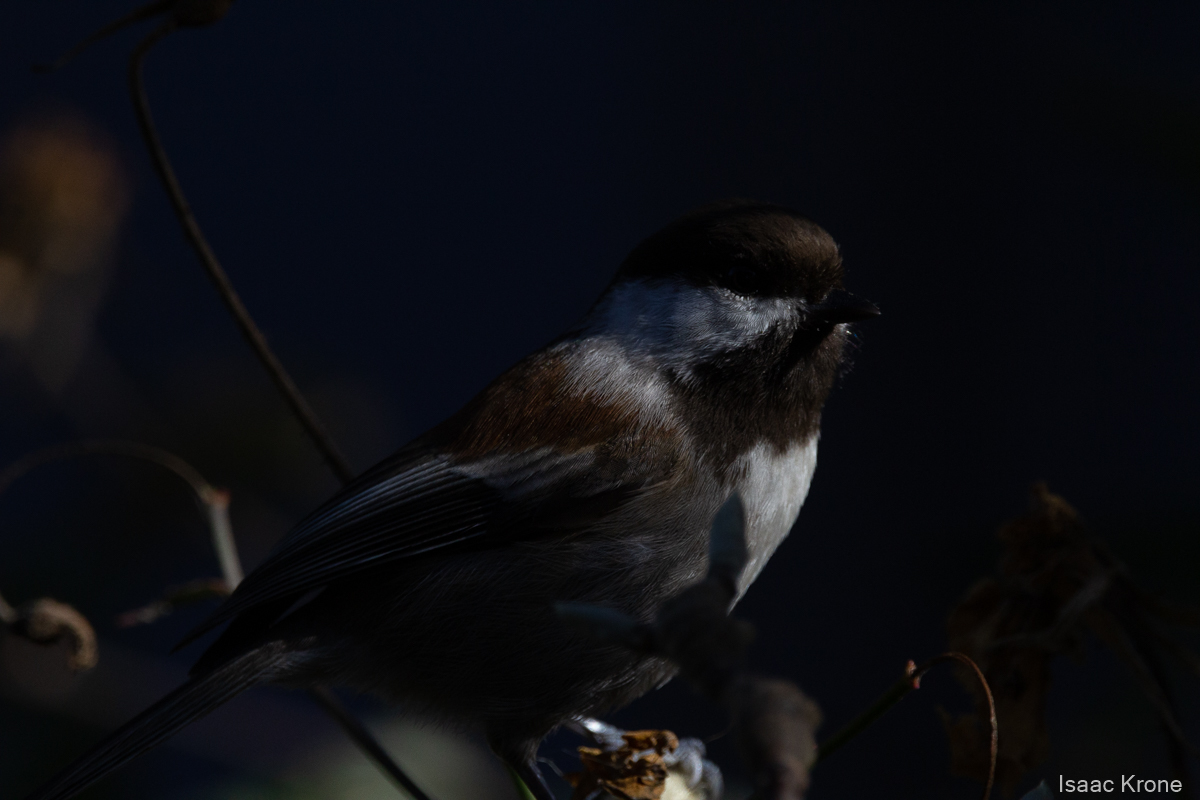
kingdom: Animalia
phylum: Chordata
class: Aves
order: Passeriformes
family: Paridae
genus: Poecile
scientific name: Poecile rufescens
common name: Chestnut-backed chickadee
